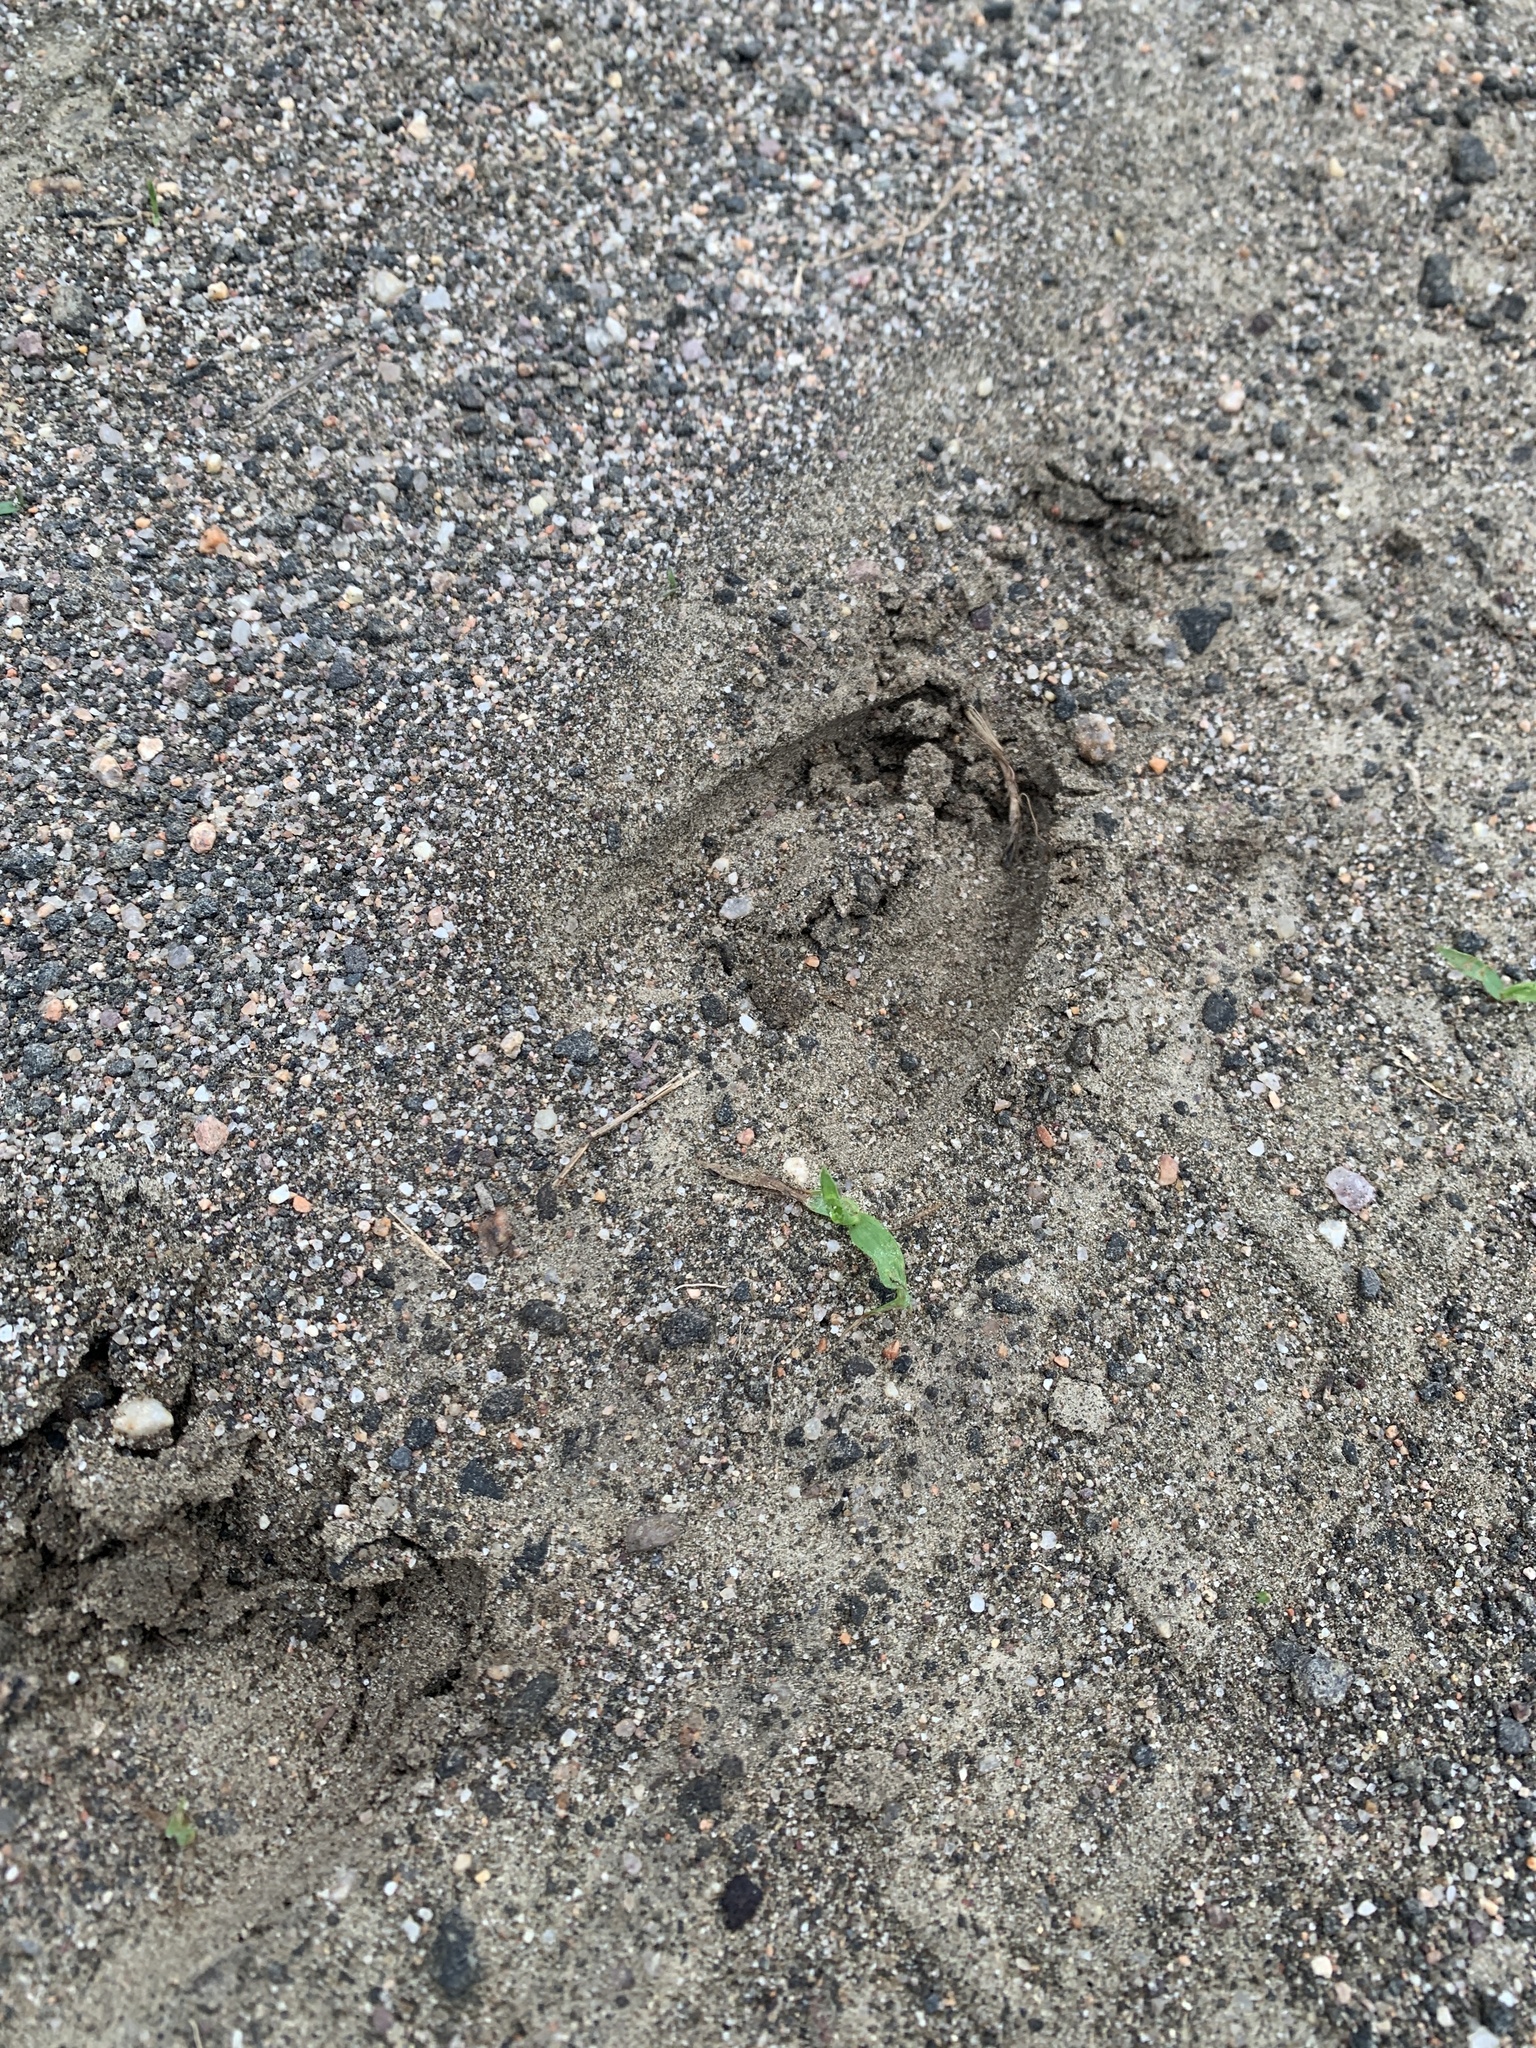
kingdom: Animalia
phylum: Chordata
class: Mammalia
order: Artiodactyla
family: Cervidae
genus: Odocoileus
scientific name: Odocoileus virginianus
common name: White-tailed deer
